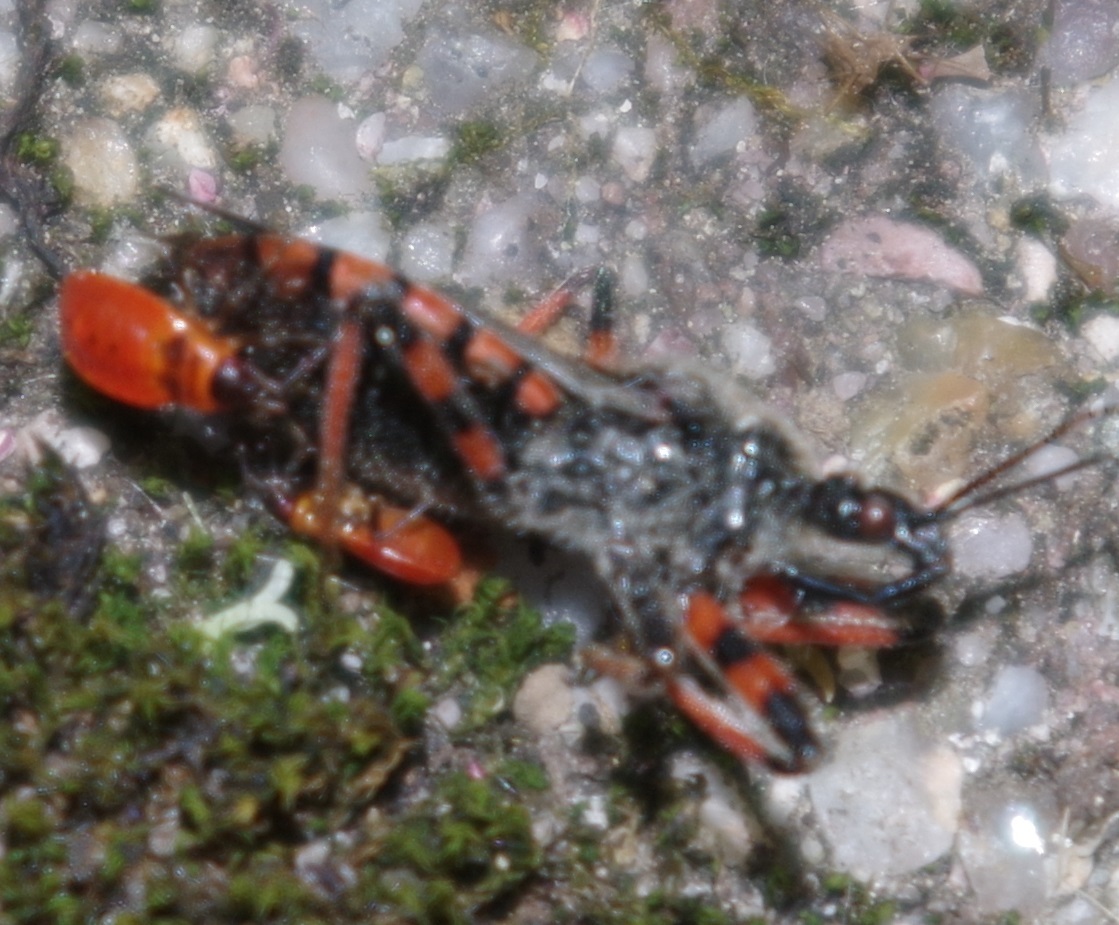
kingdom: Animalia
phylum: Arthropoda
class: Insecta
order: Hemiptera
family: Pyrrhocoridae
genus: Pyrrhocoris
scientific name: Pyrrhocoris apterus
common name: Firebug
